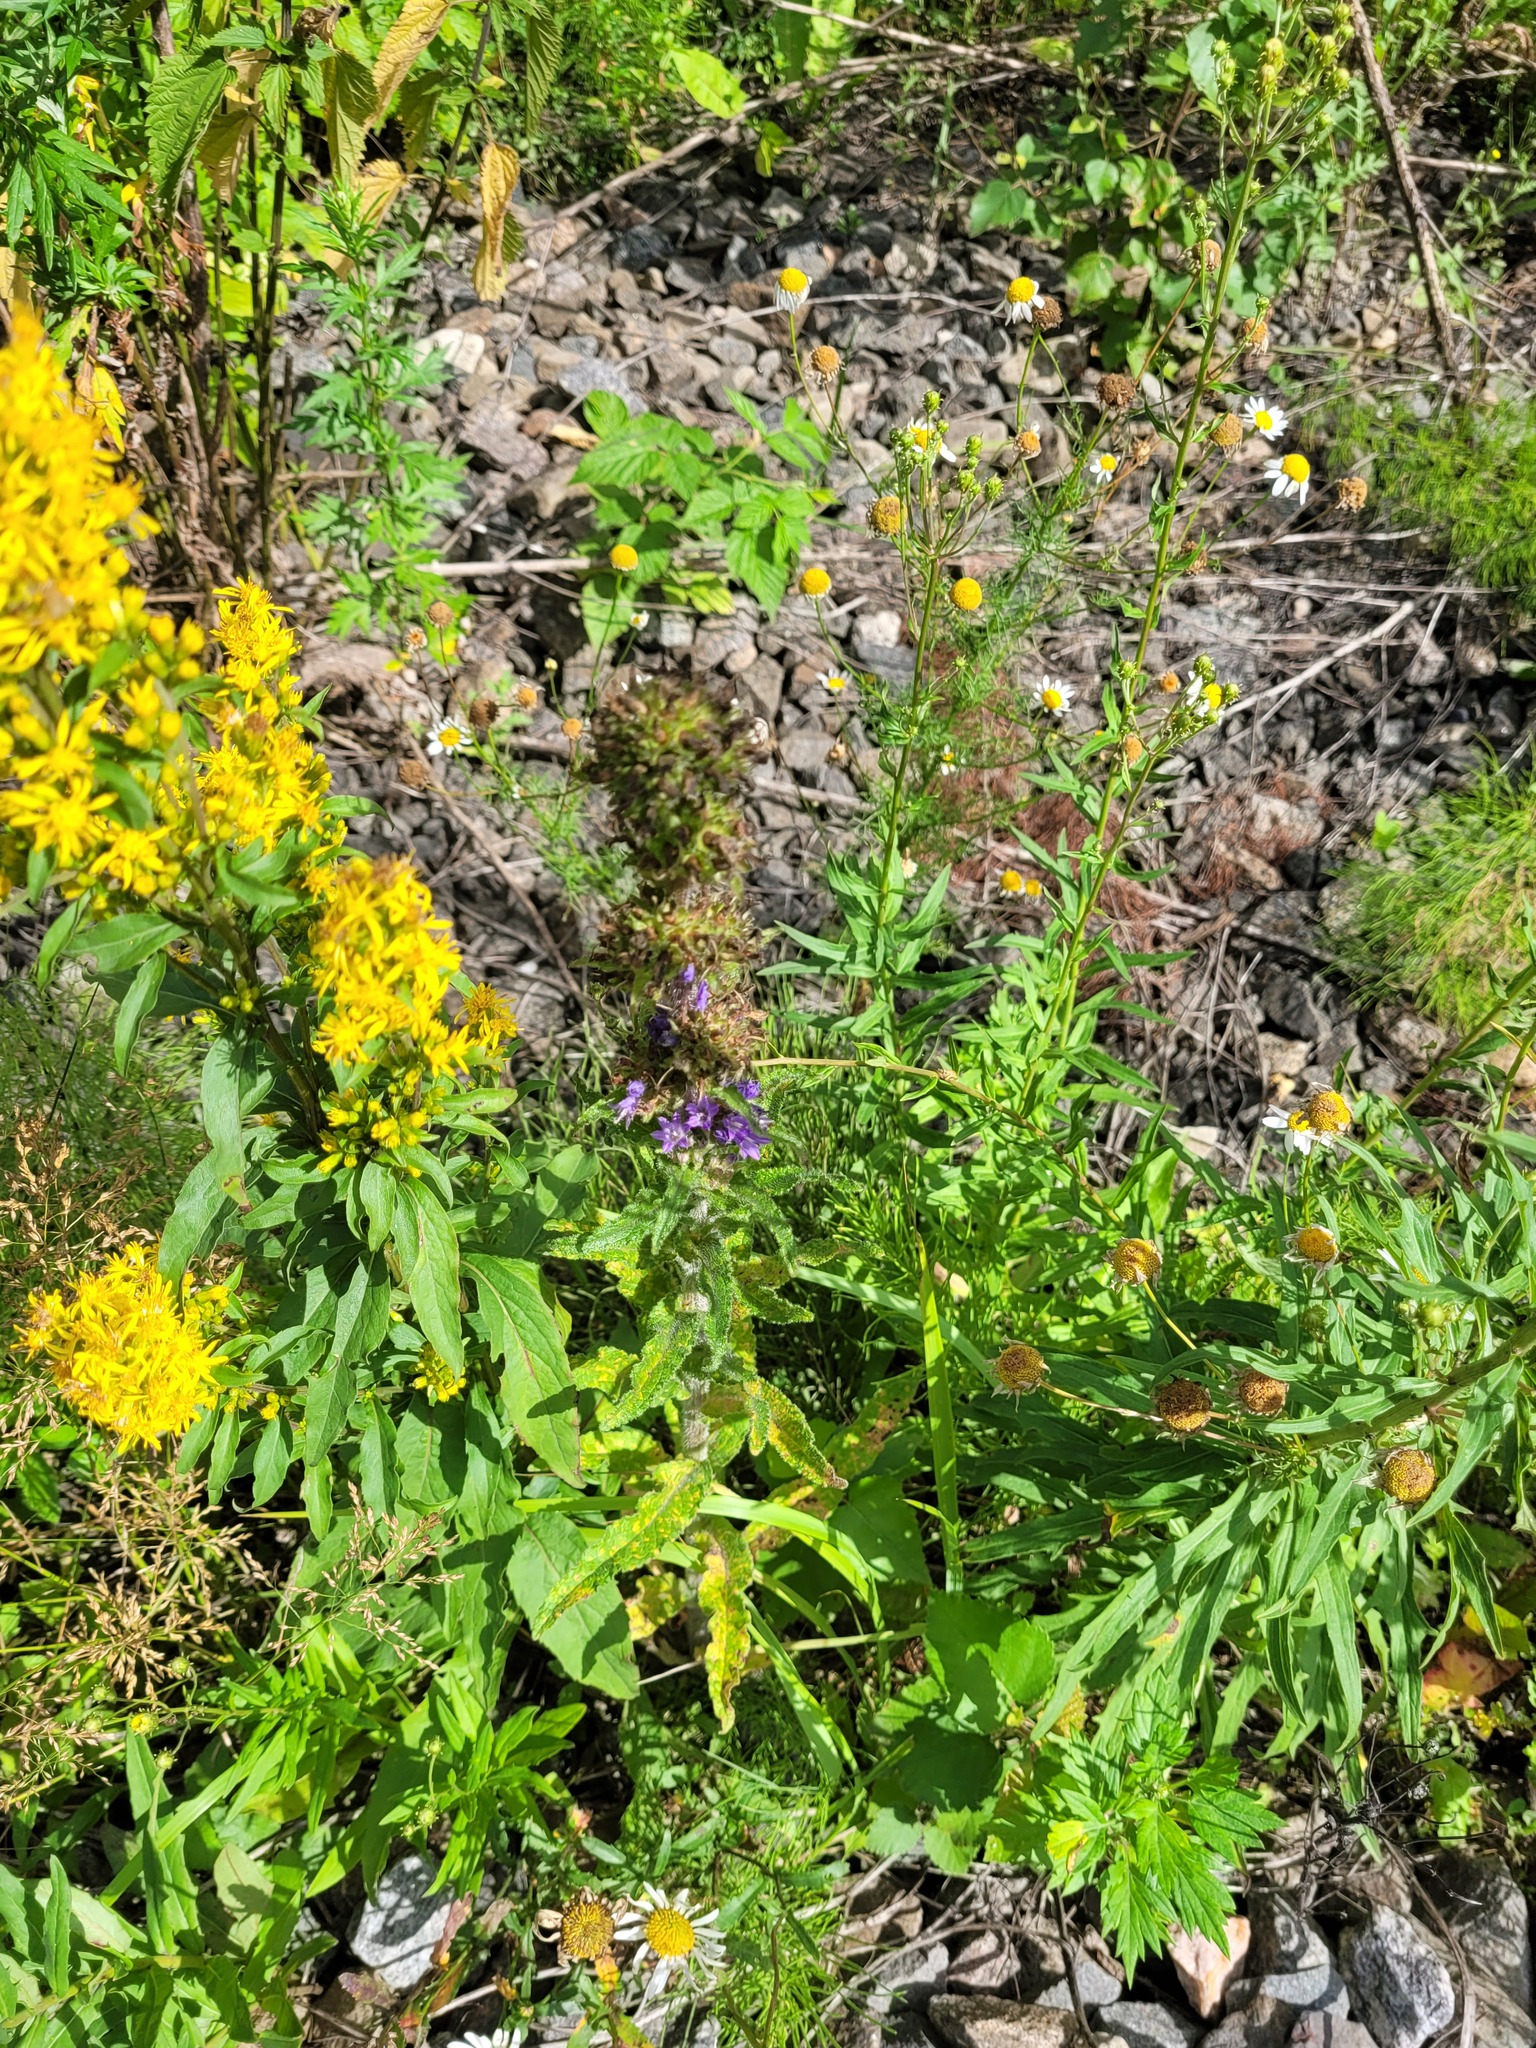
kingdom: Plantae
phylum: Tracheophyta
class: Magnoliopsida
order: Asterales
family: Campanulaceae
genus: Campanula
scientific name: Campanula cervicaria
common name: Bristly bellflower
